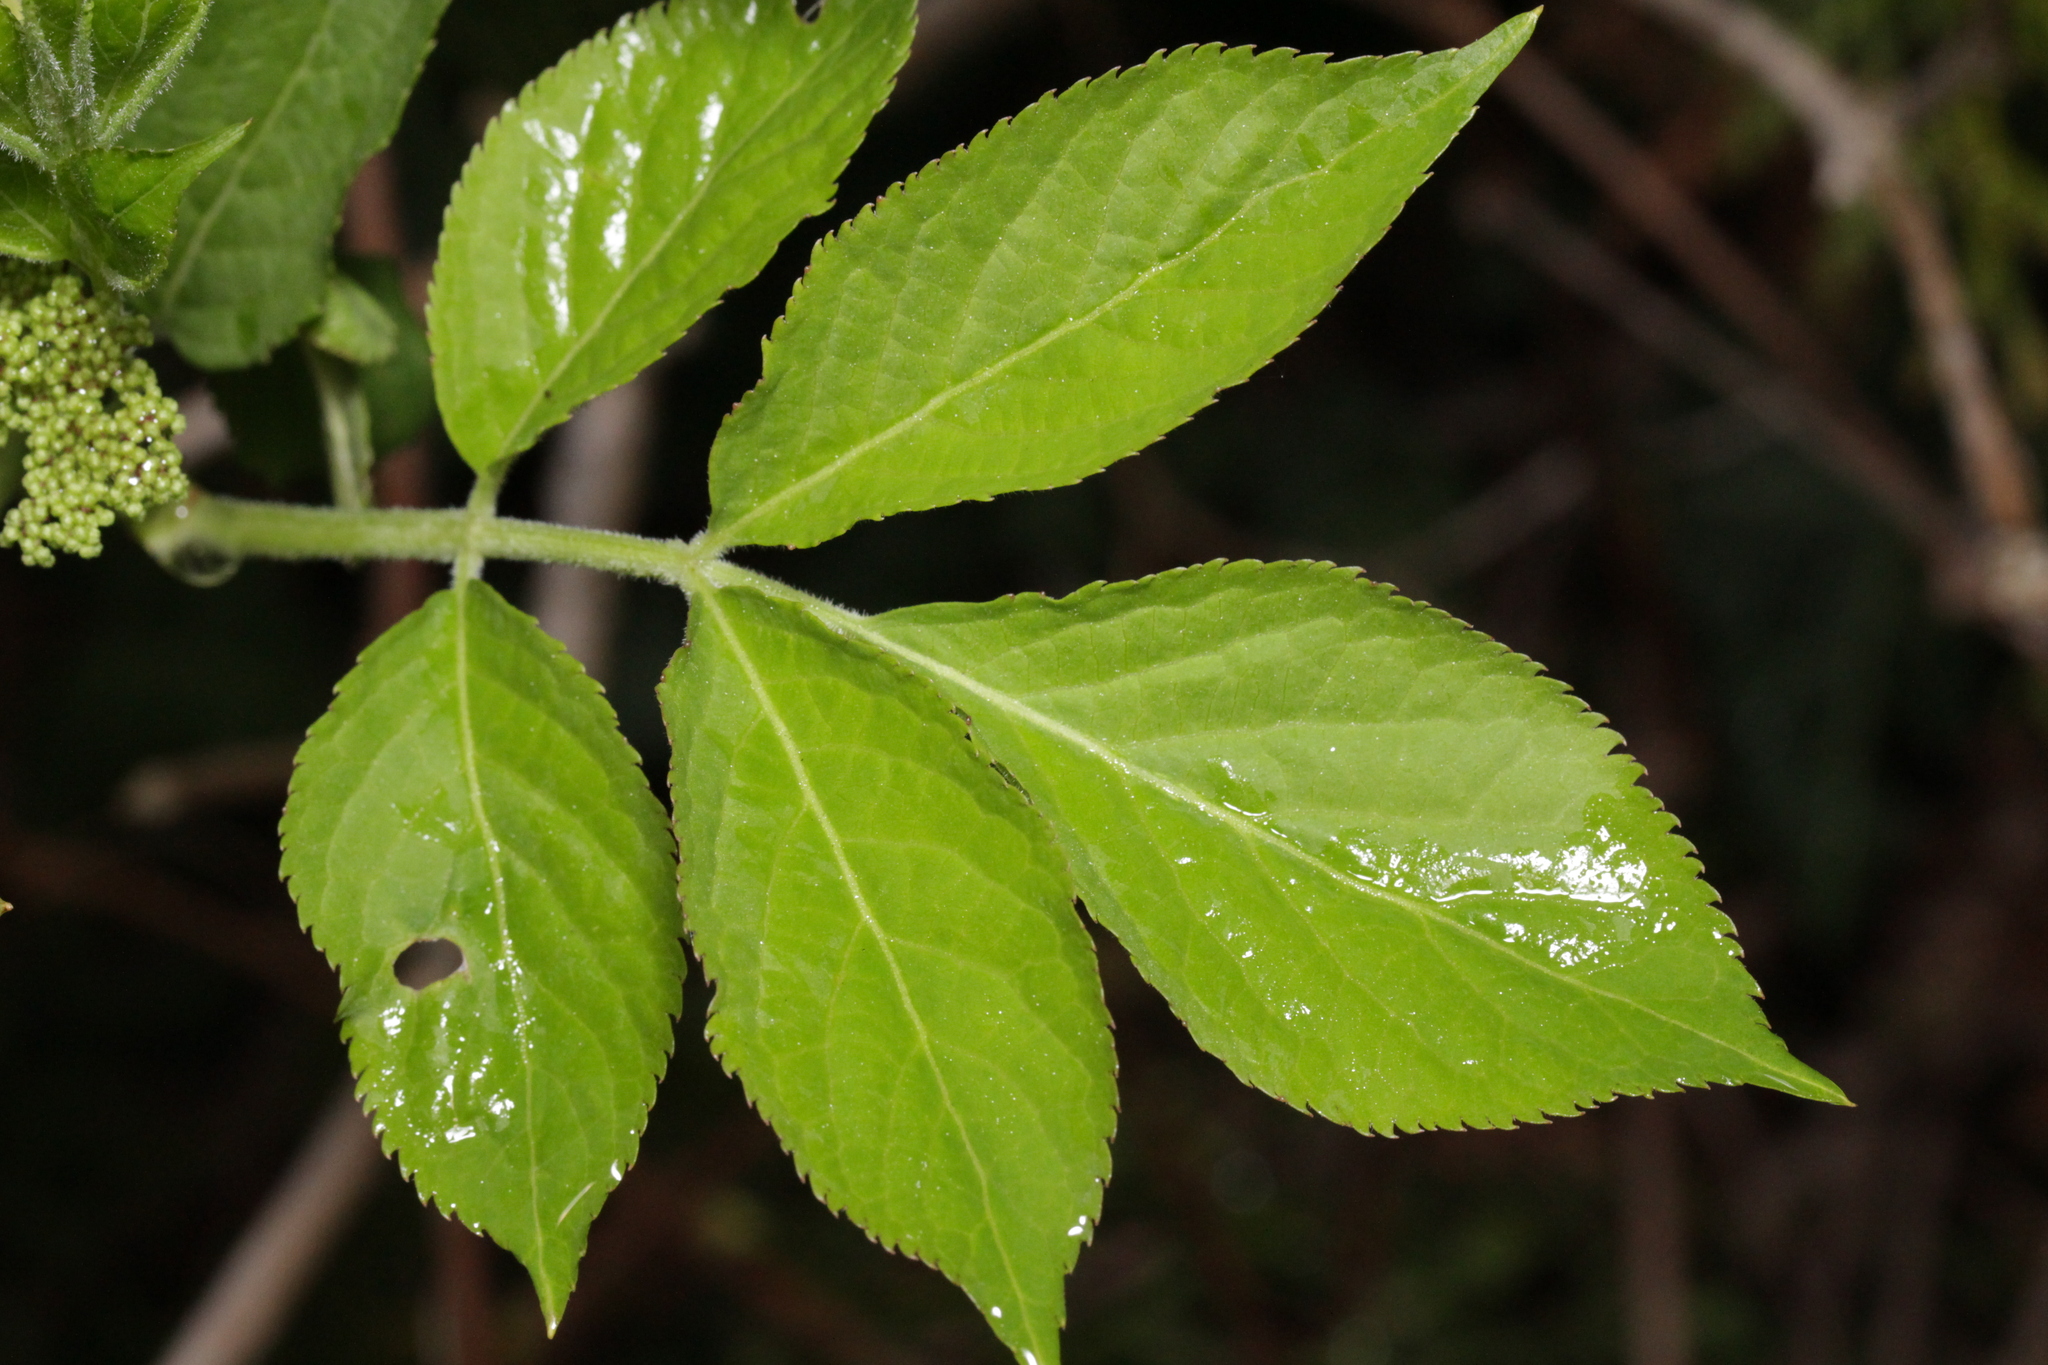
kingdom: Plantae
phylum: Tracheophyta
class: Magnoliopsida
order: Dipsacales
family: Viburnaceae
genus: Sambucus
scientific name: Sambucus nigra
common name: Elder
